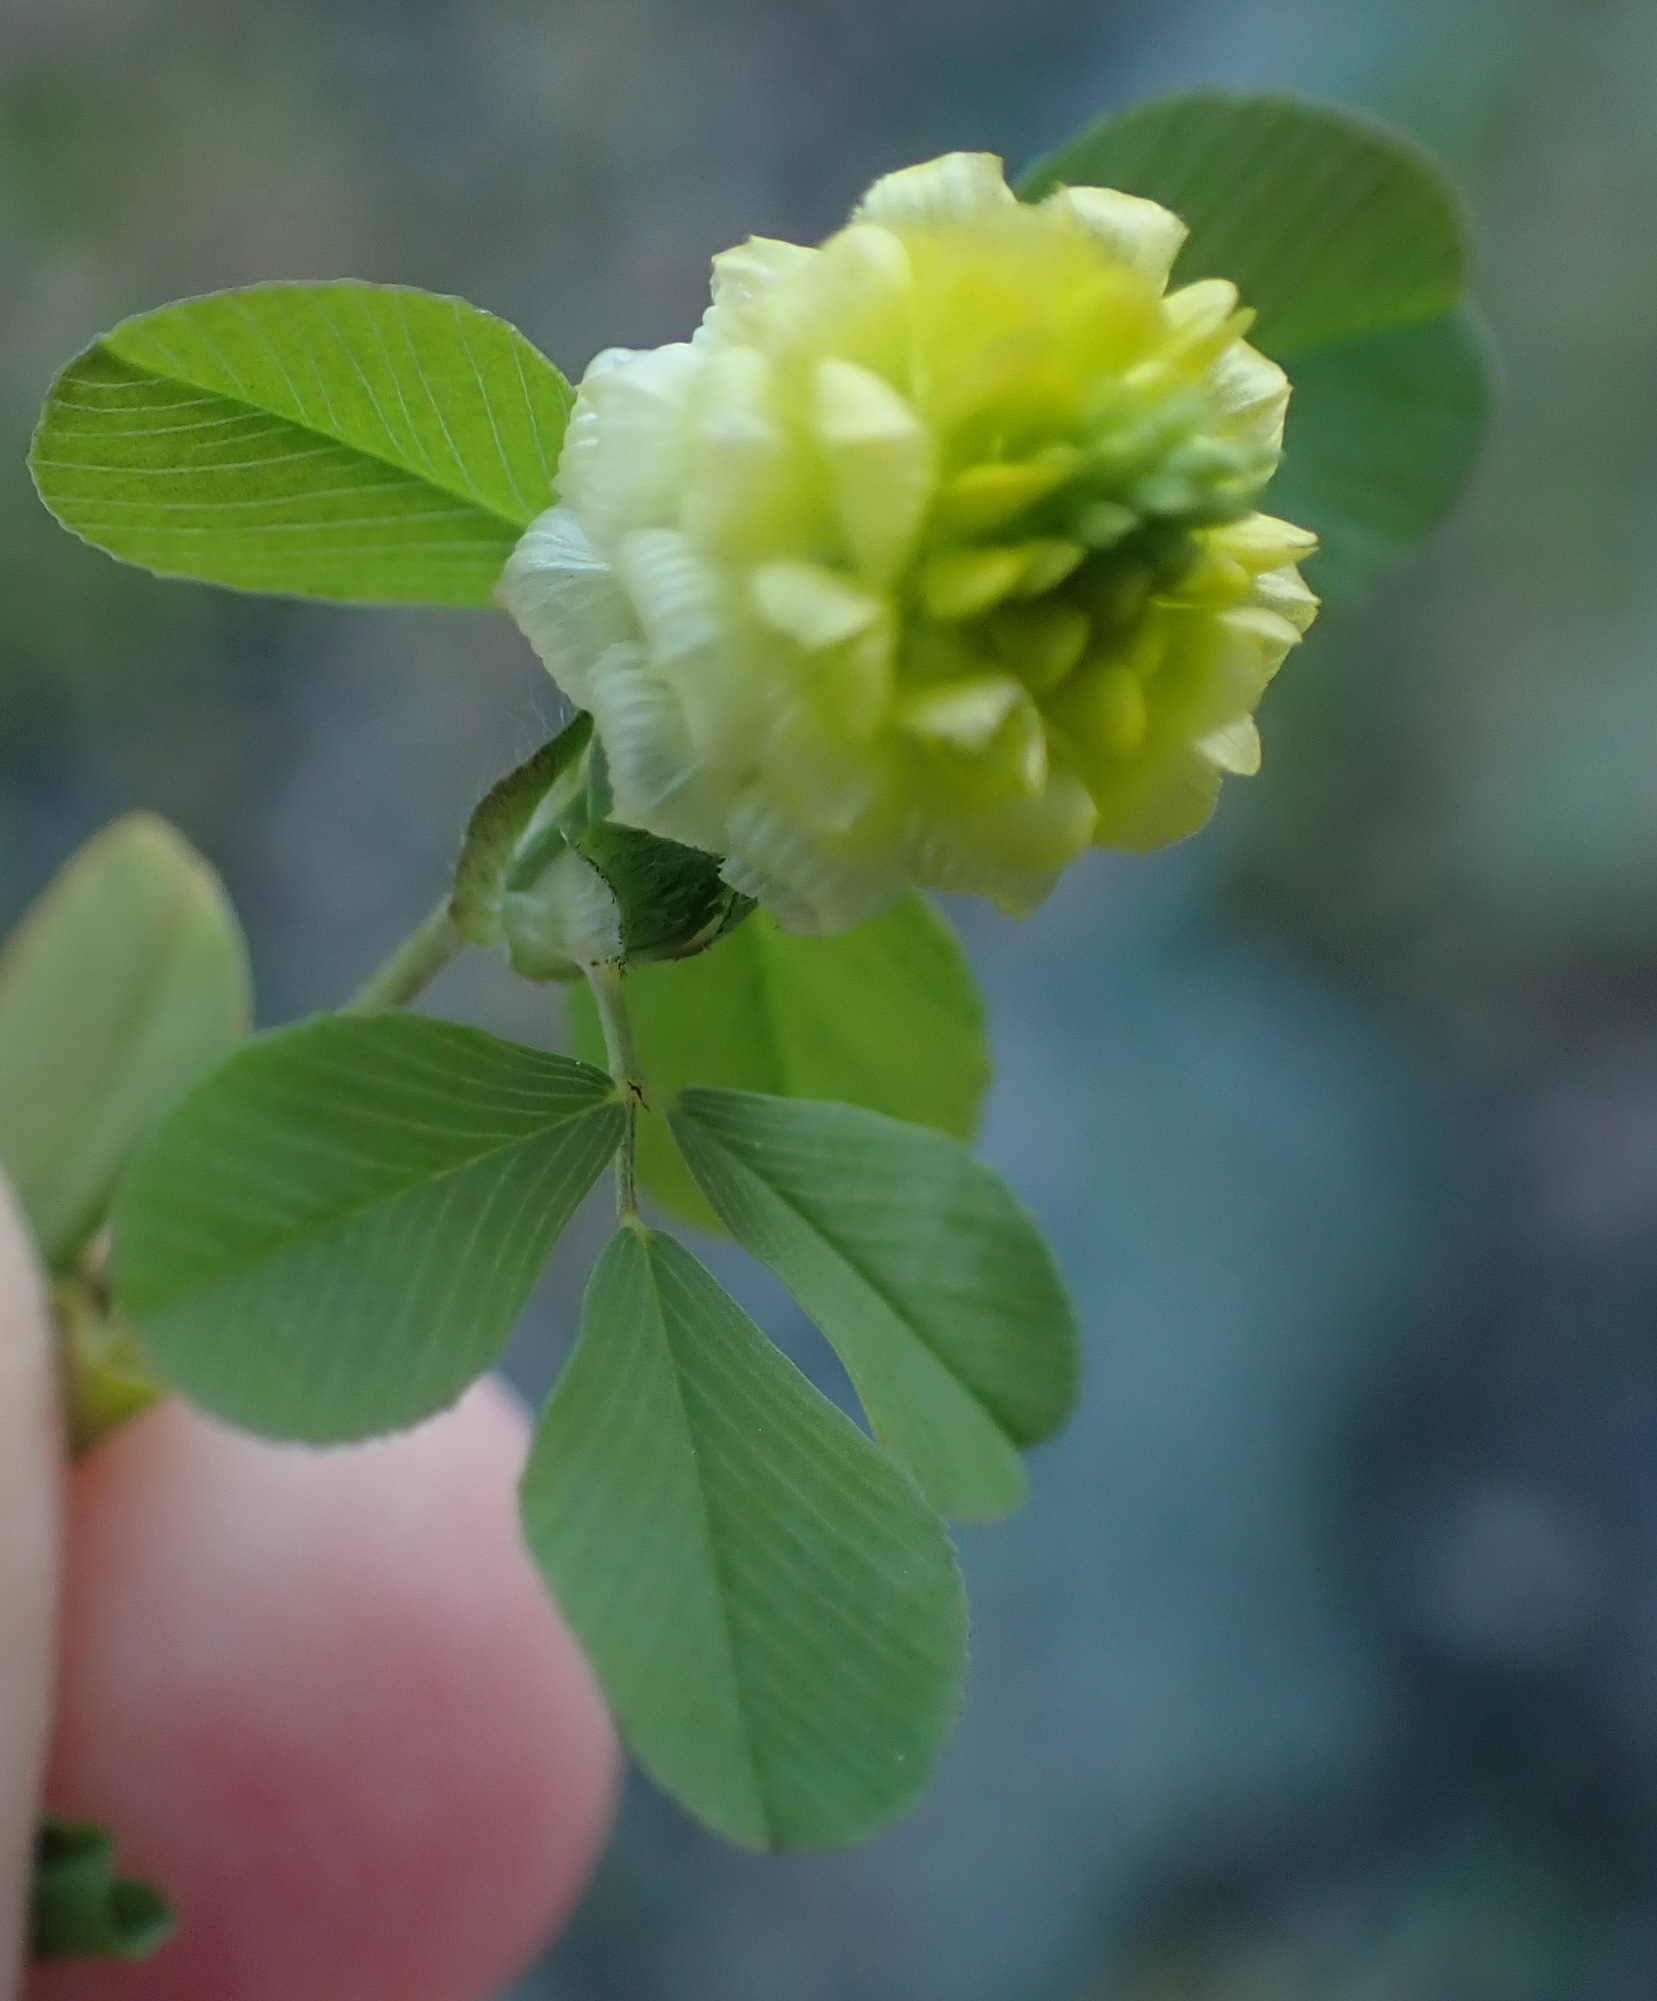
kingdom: Plantae
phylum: Tracheophyta
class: Magnoliopsida
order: Fabales
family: Fabaceae
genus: Trifolium
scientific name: Trifolium campestre
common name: Field clover
